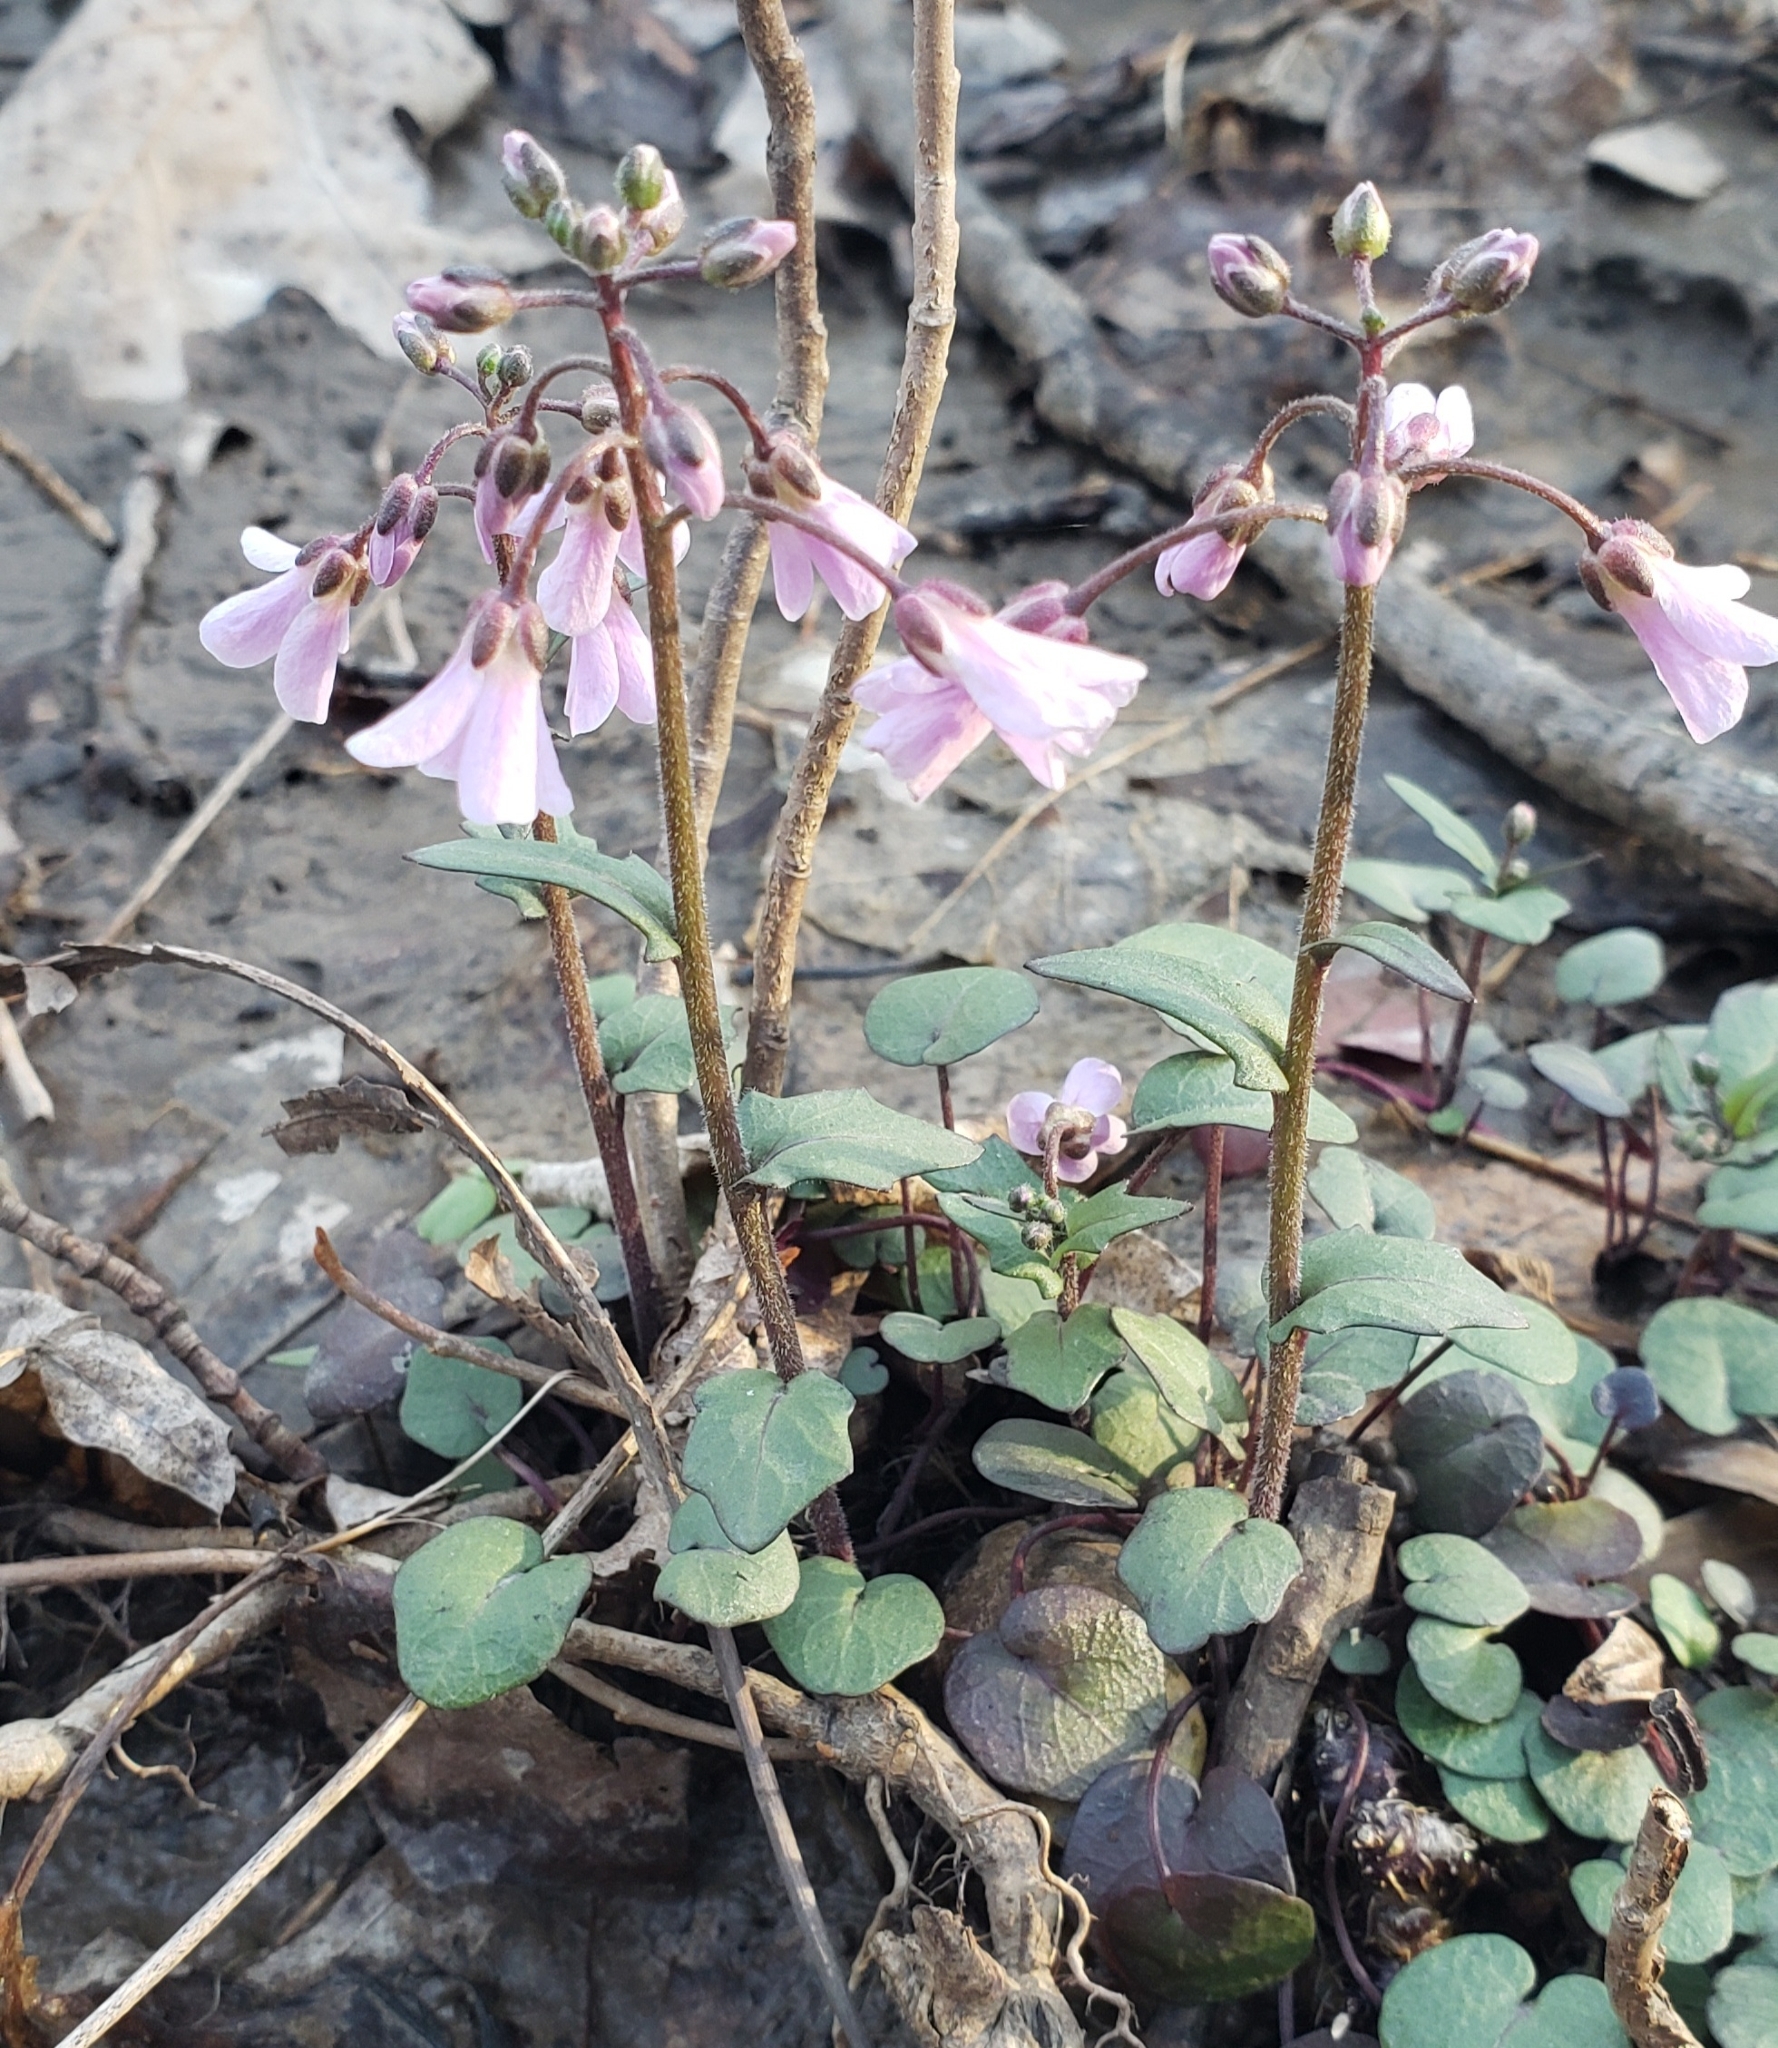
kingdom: Plantae
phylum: Tracheophyta
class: Magnoliopsida
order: Brassicales
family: Brassicaceae
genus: Cardamine
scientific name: Cardamine douglassii
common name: Purple cress
